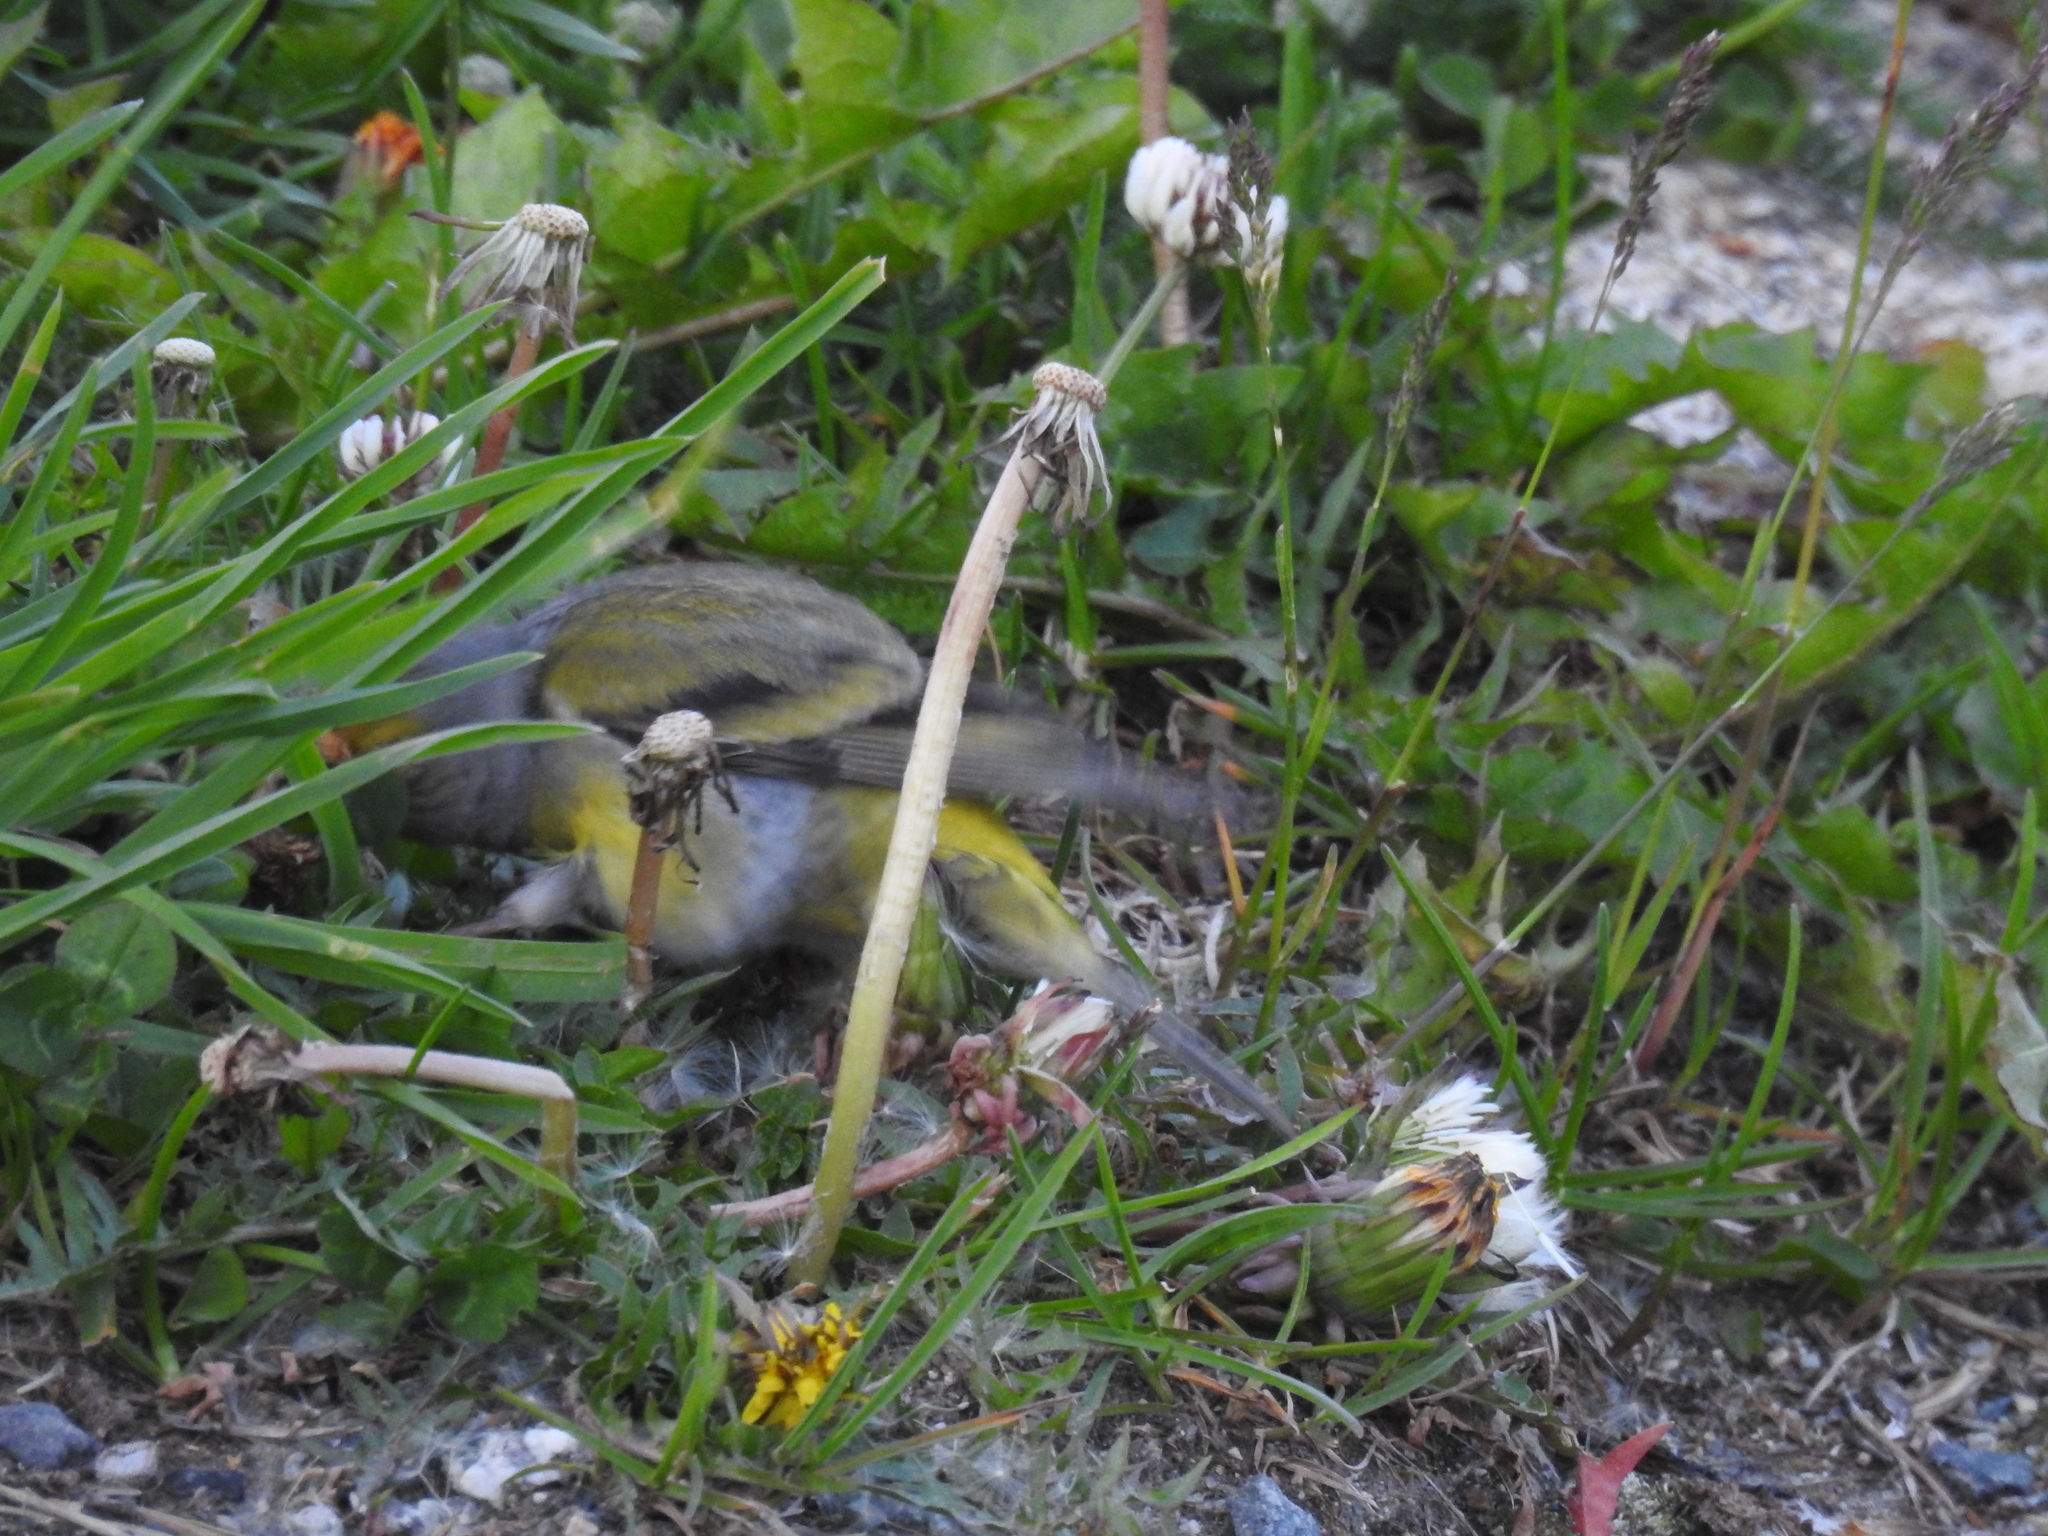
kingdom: Animalia
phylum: Chordata
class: Aves
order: Passeriformes
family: Fringillidae
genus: Carduelis
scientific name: Carduelis citrinella
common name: Citril finch
